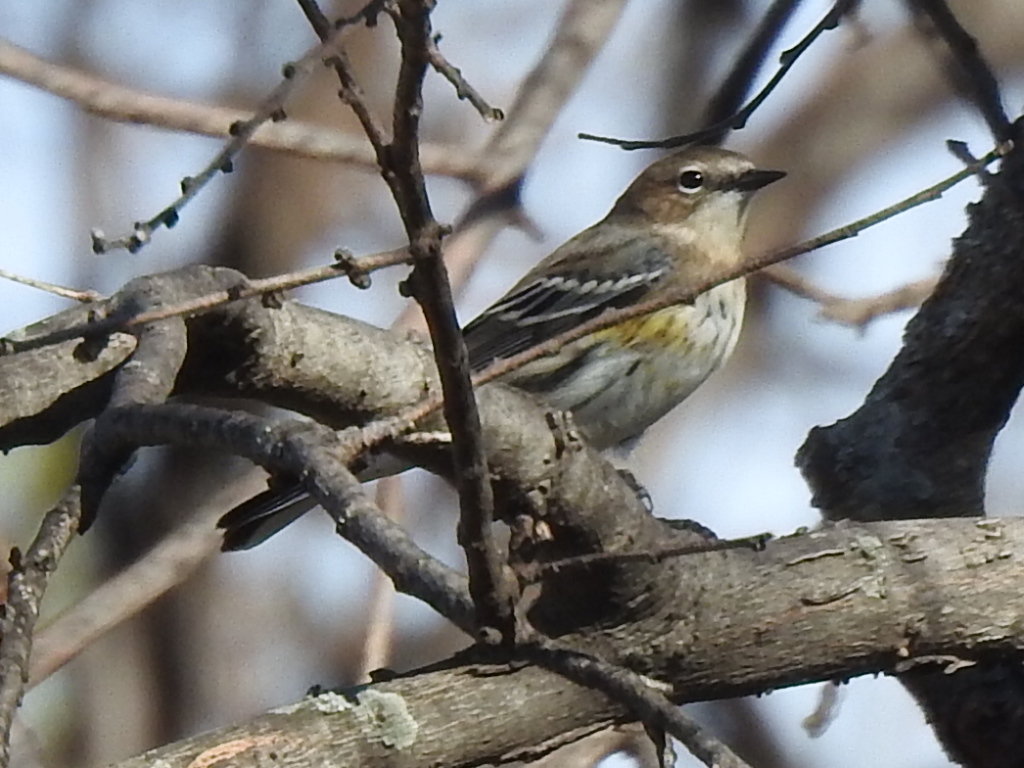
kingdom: Animalia
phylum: Chordata
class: Aves
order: Passeriformes
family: Parulidae
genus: Setophaga
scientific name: Setophaga coronata
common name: Myrtle warbler
